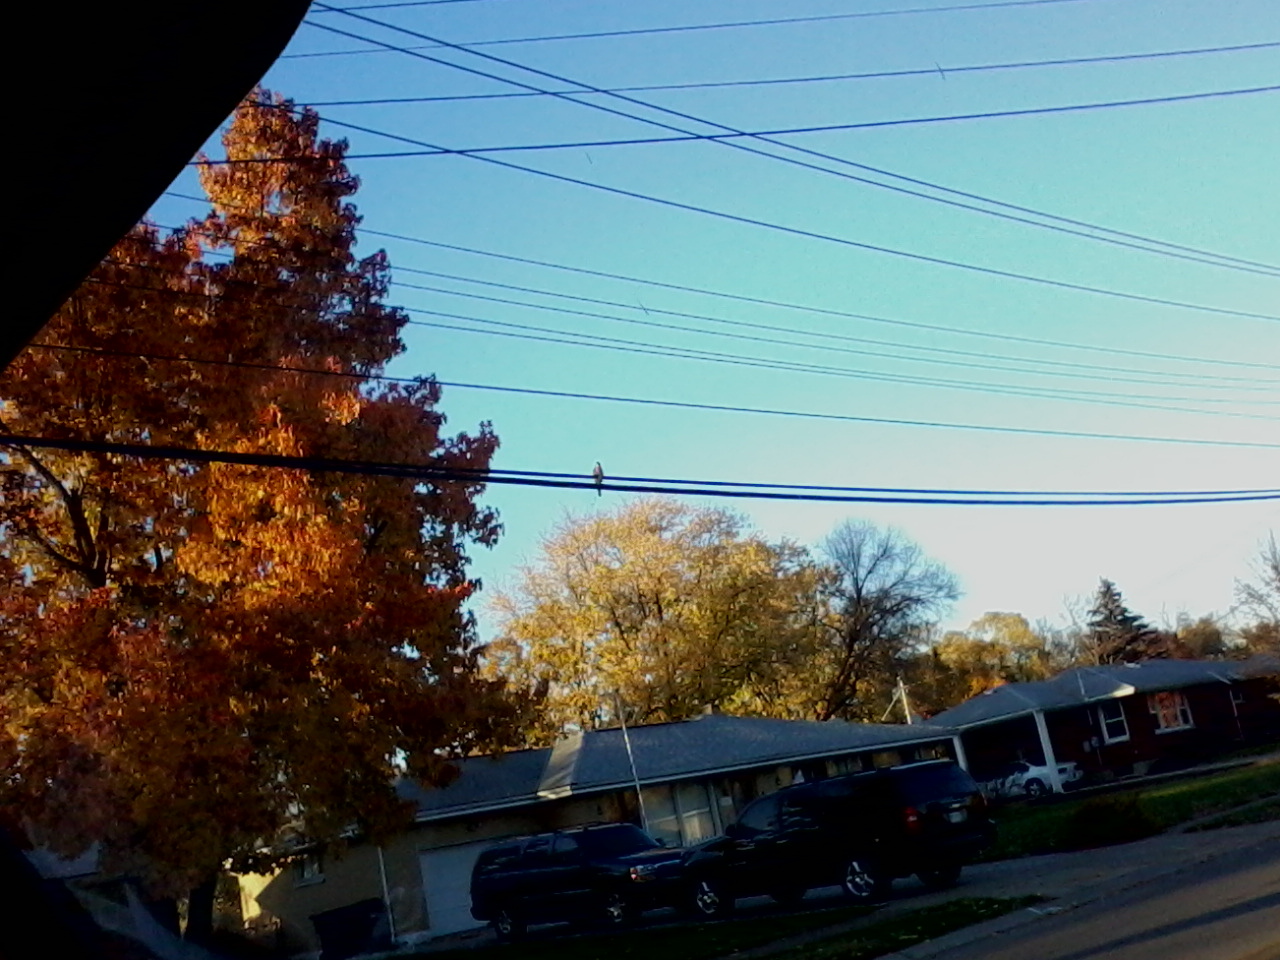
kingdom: Animalia
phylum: Chordata
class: Aves
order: Accipitriformes
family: Accipitridae
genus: Accipiter
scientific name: Accipiter cooperii
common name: Cooper's hawk
